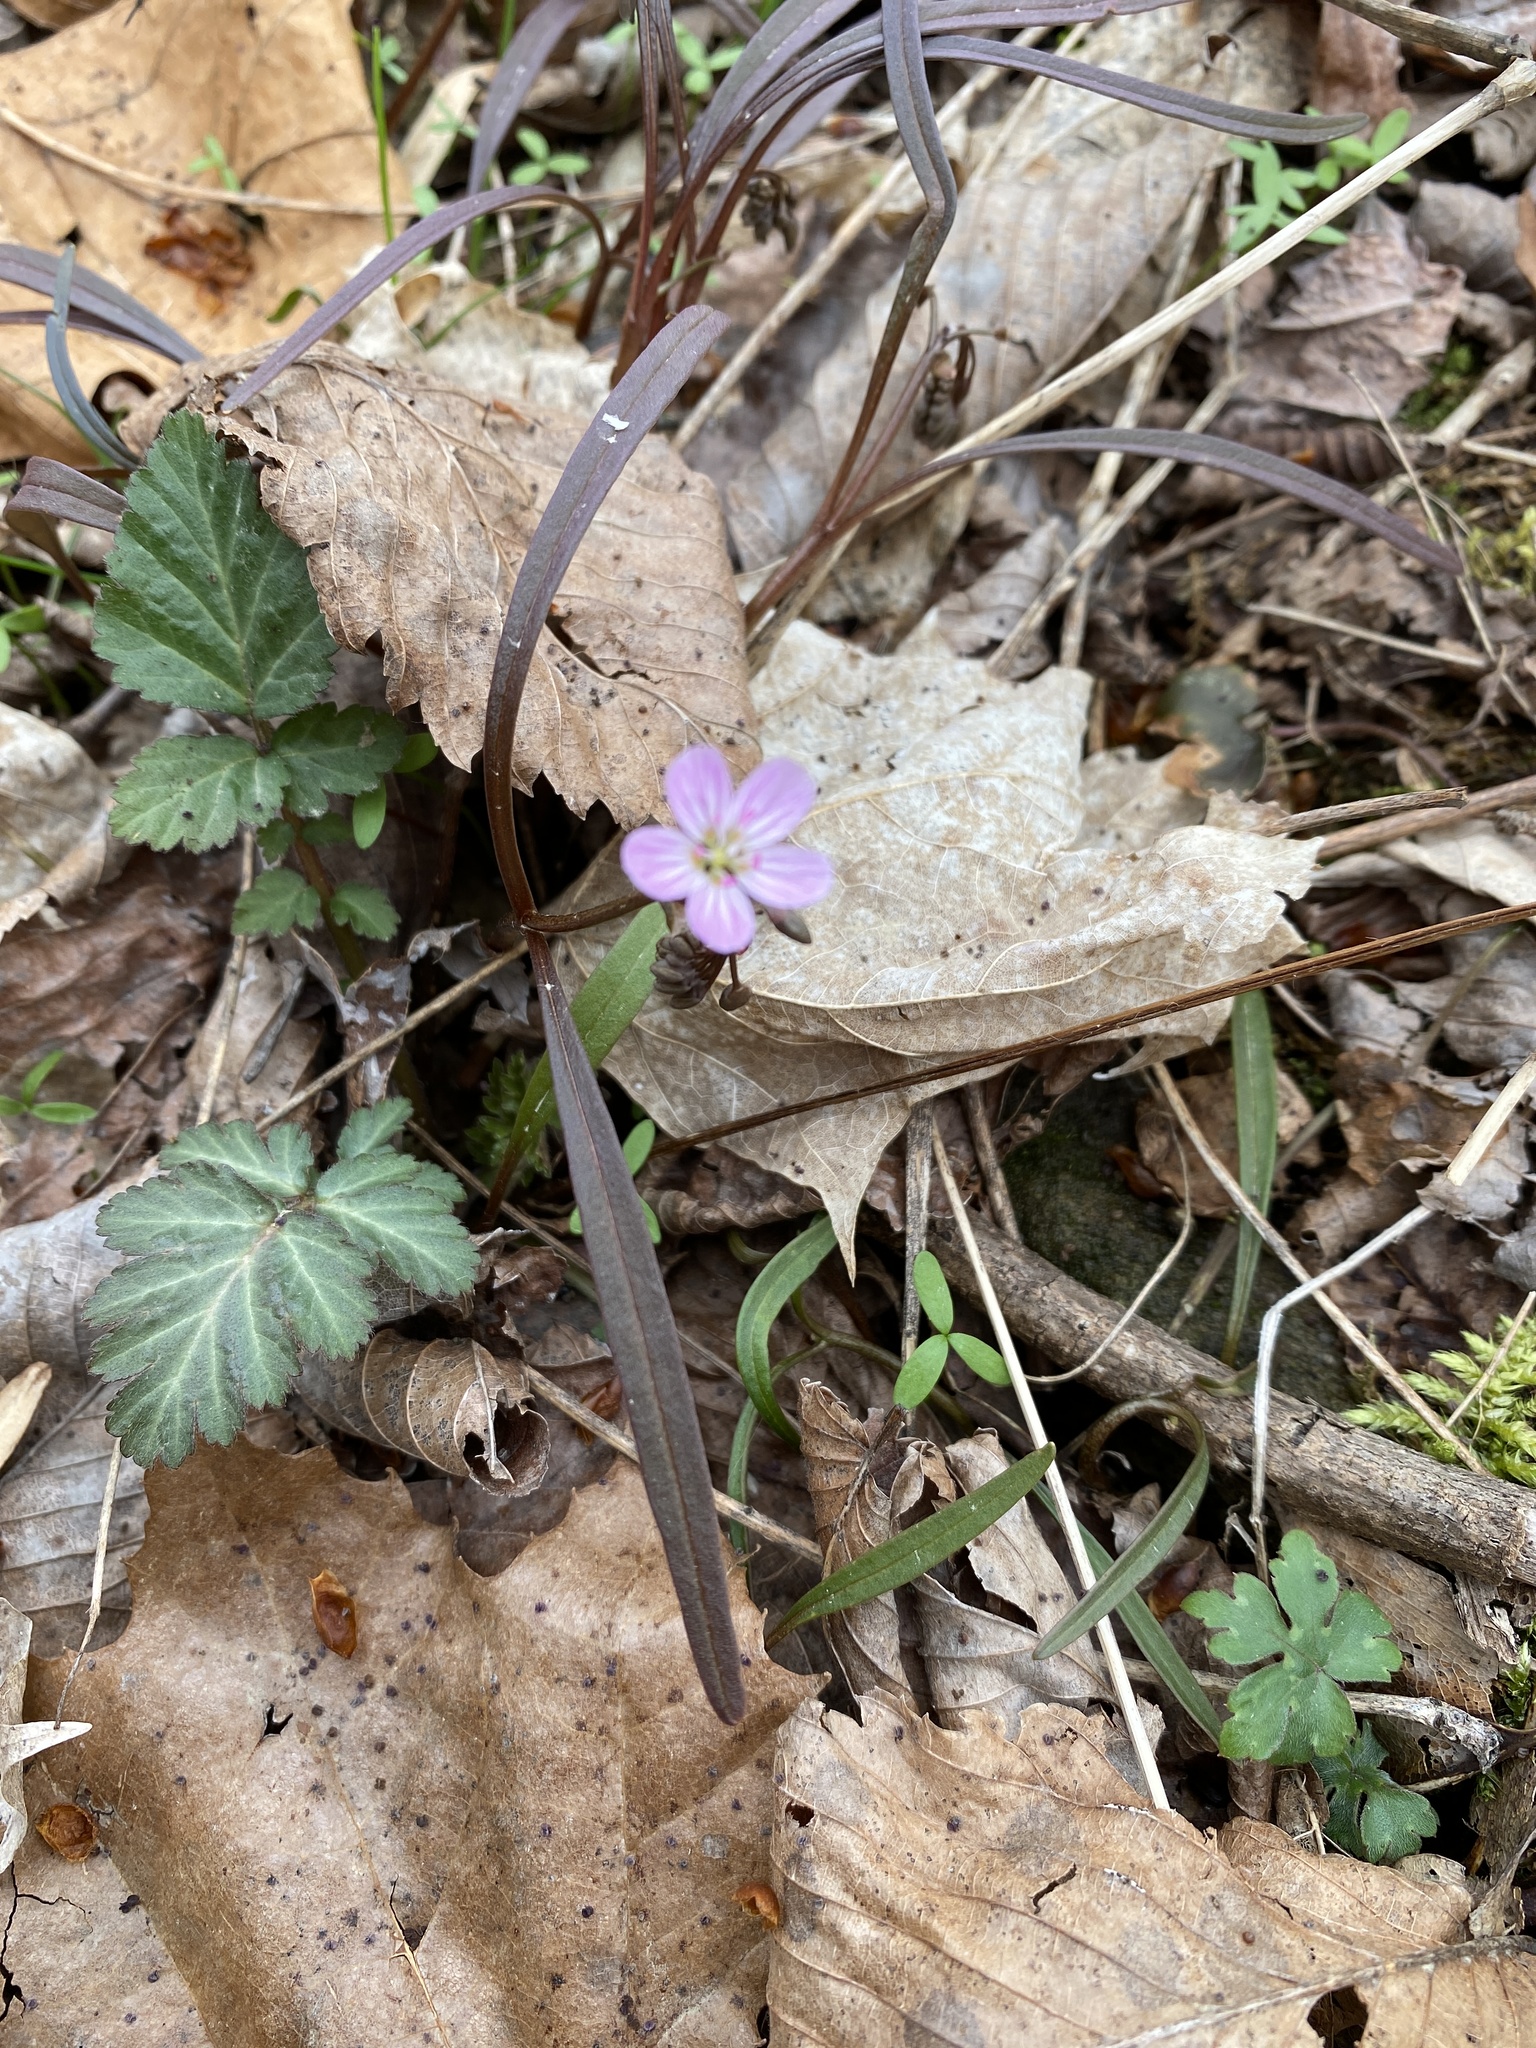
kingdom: Plantae
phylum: Tracheophyta
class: Magnoliopsida
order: Caryophyllales
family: Montiaceae
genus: Claytonia
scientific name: Claytonia virginica
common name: Virginia springbeauty
